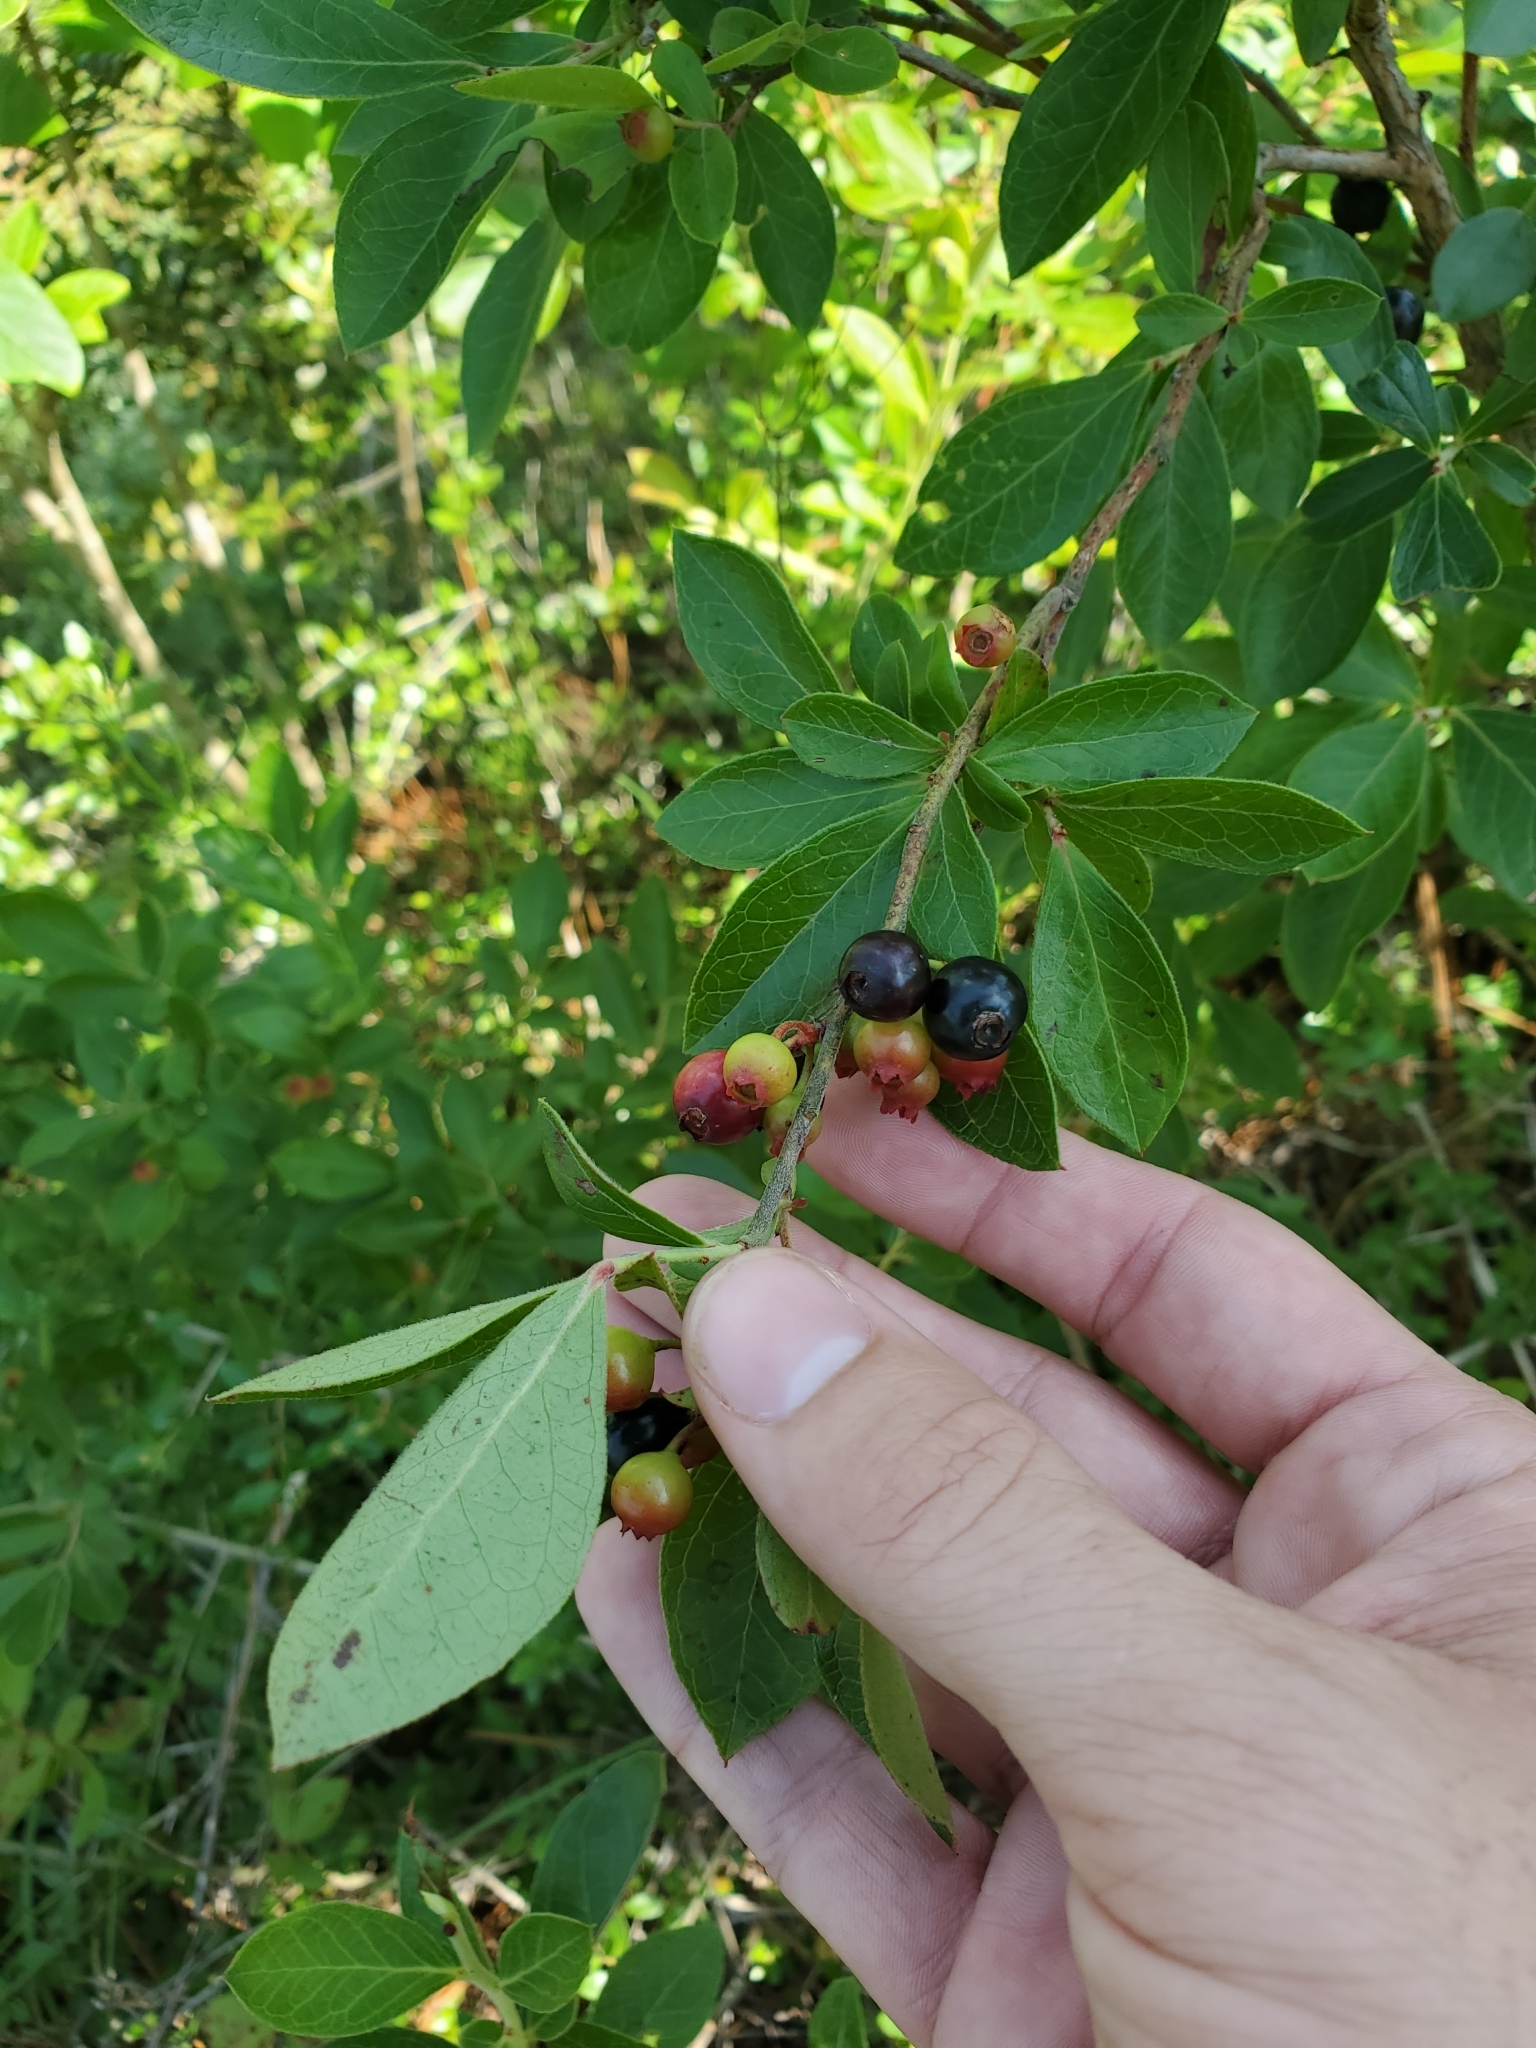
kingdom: Plantae
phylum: Tracheophyta
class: Magnoliopsida
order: Ericales
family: Ericaceae
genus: Vaccinium
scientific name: Vaccinium arboreum
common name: Farkleberry
